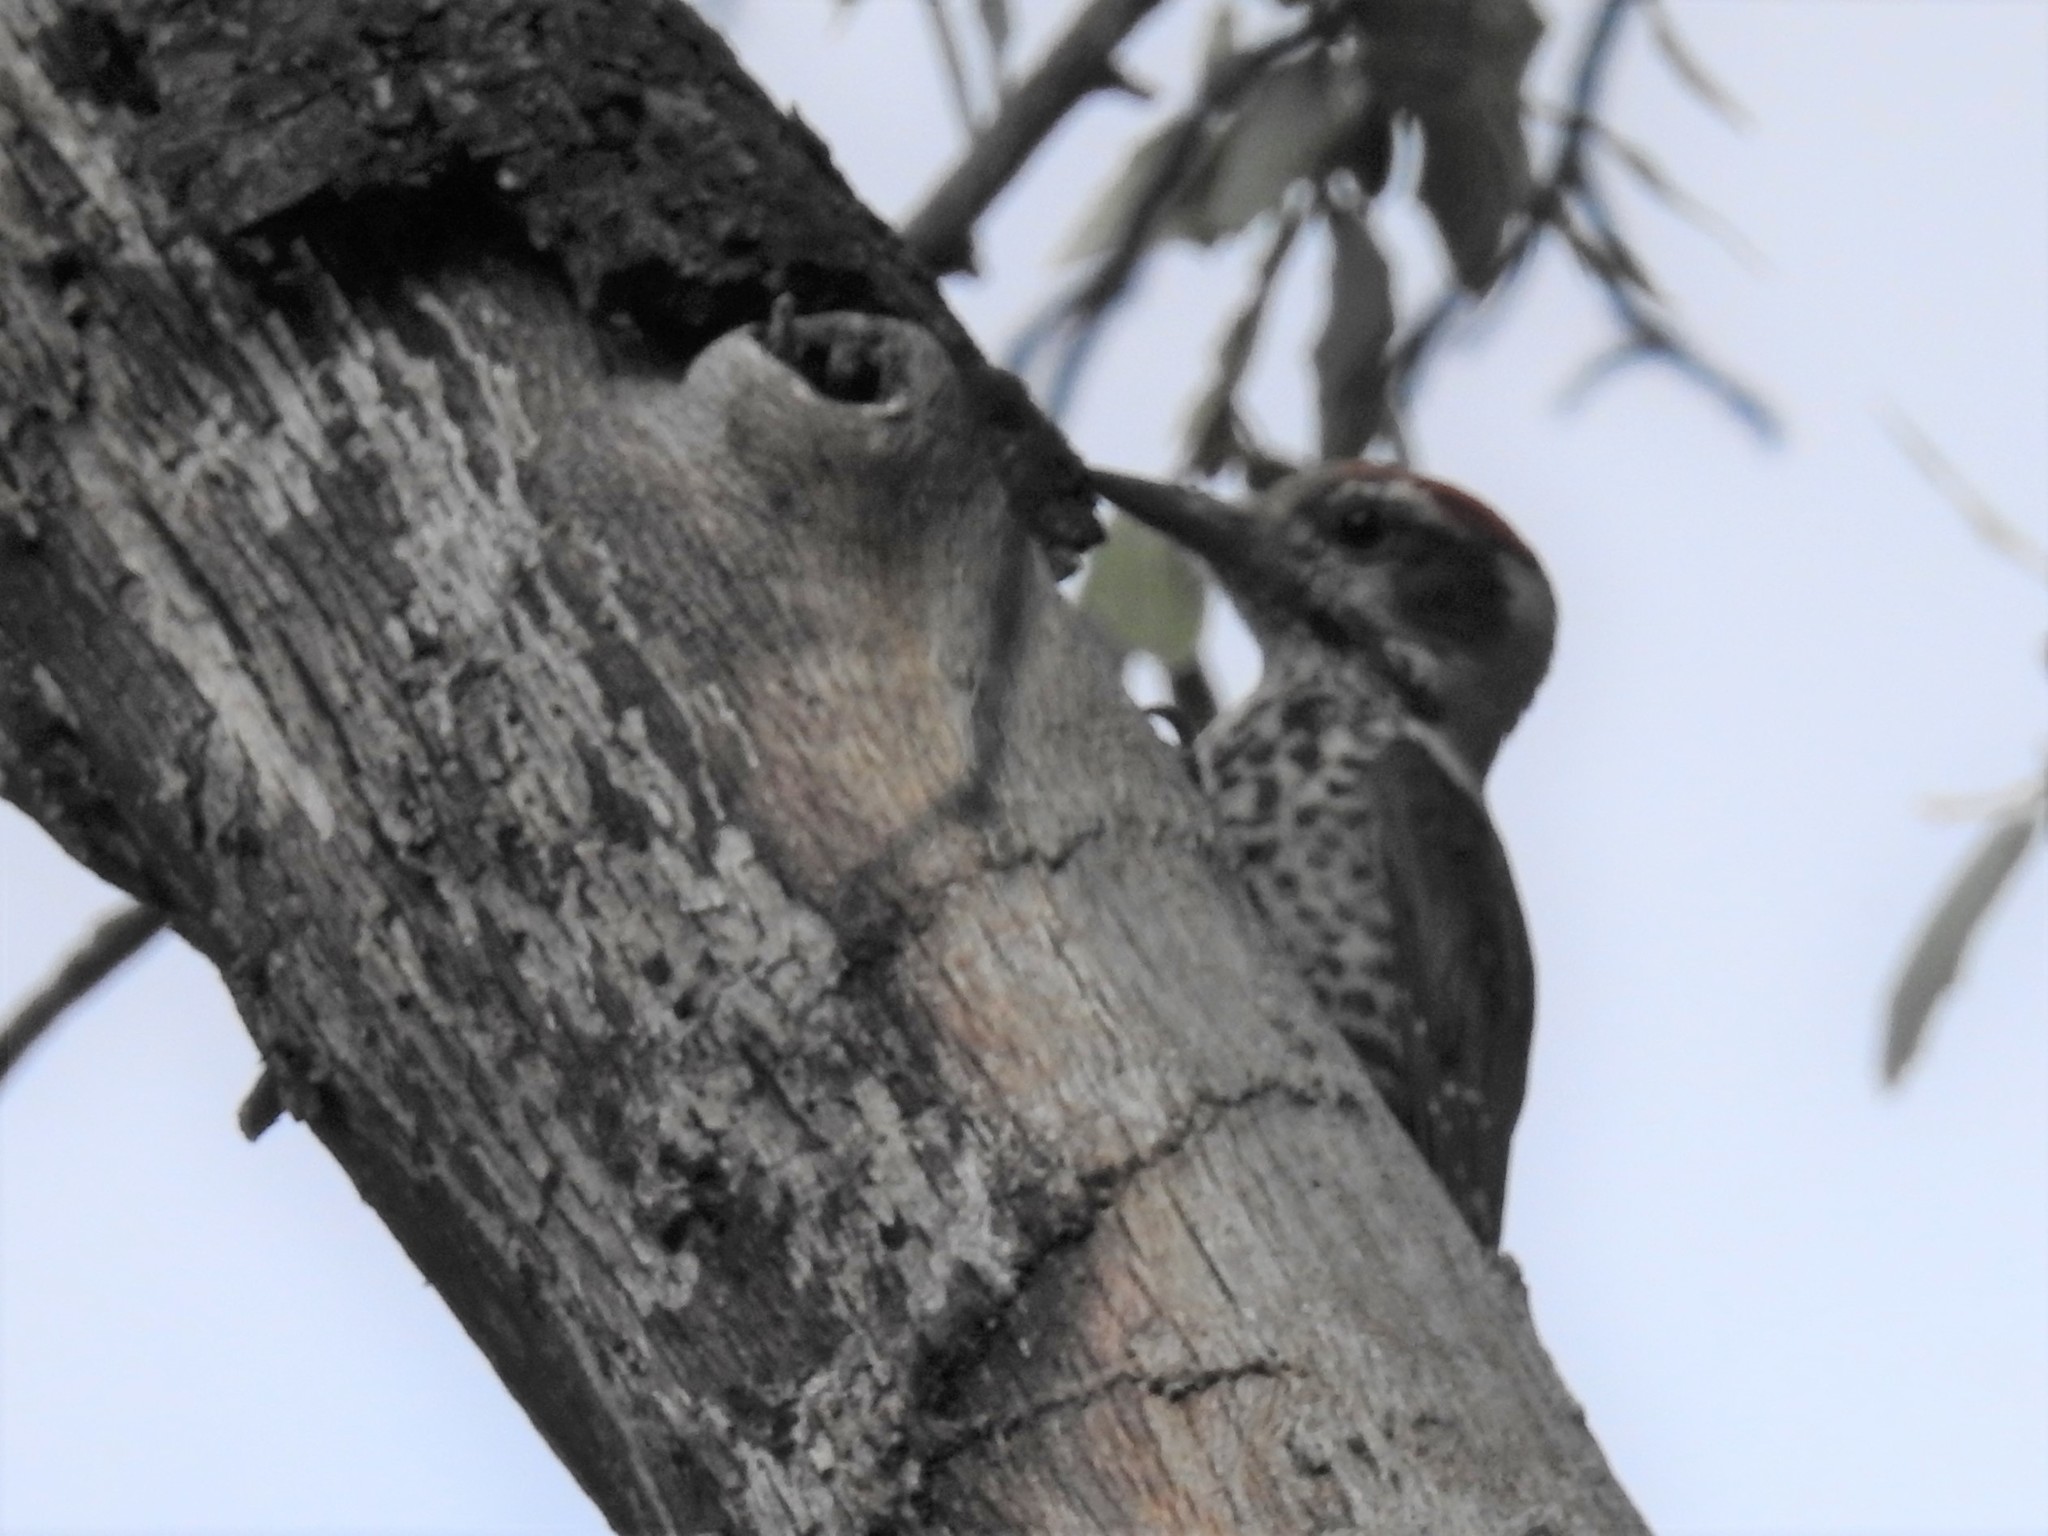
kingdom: Animalia
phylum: Chordata
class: Aves
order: Piciformes
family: Picidae
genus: Leuconotopicus
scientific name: Leuconotopicus arizonae
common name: Arizona woodpecker
